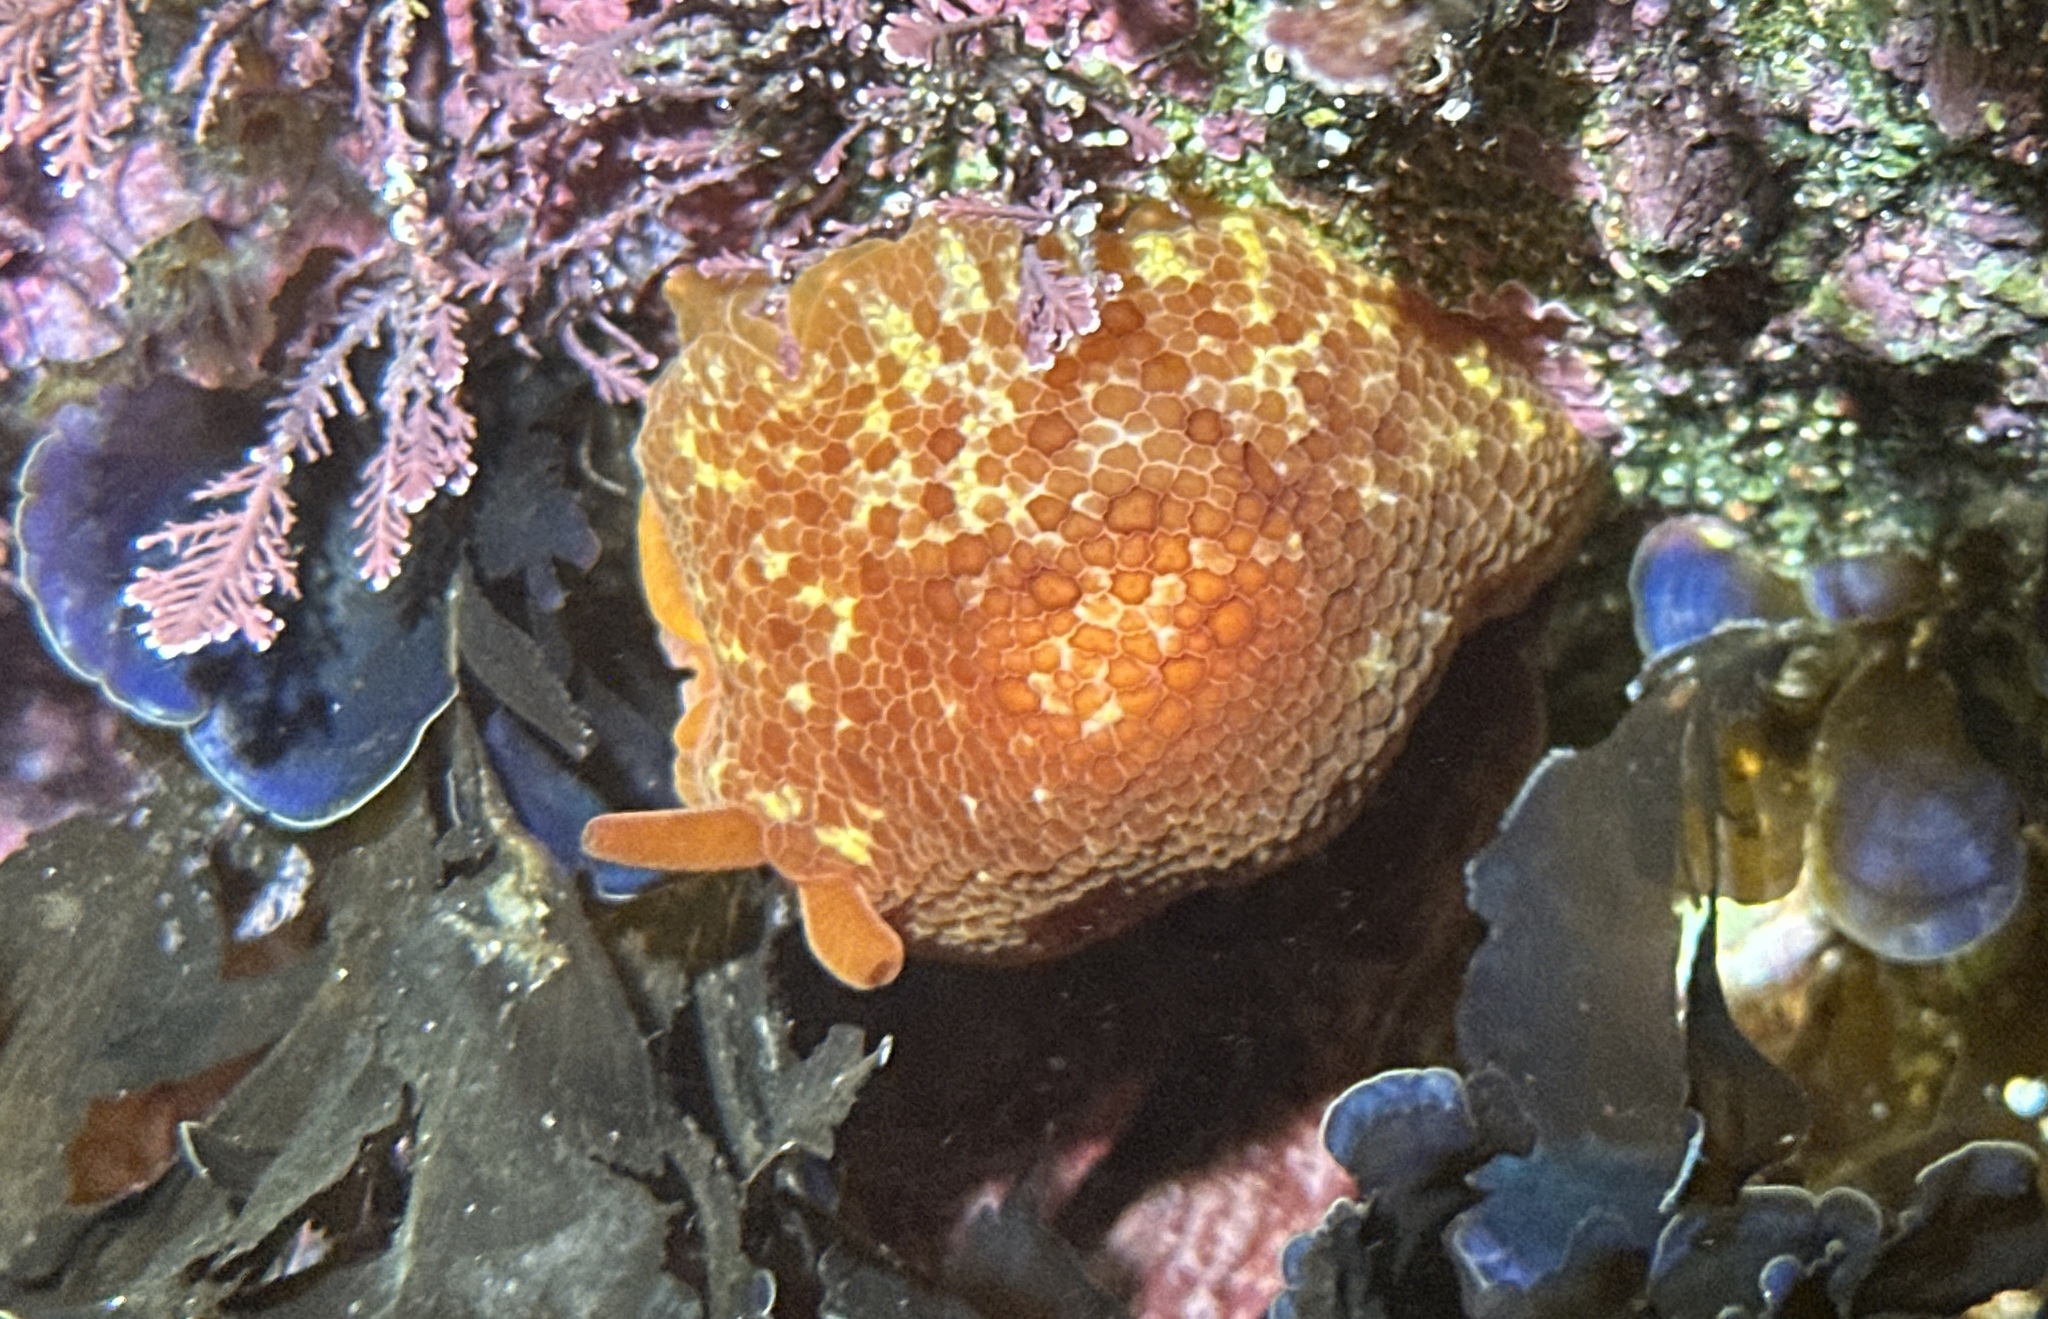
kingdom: Animalia
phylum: Mollusca
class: Gastropoda
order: Pleurobranchida
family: Pleurobranchidae
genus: Pleurobranchus
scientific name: Pleurobranchus peronii
